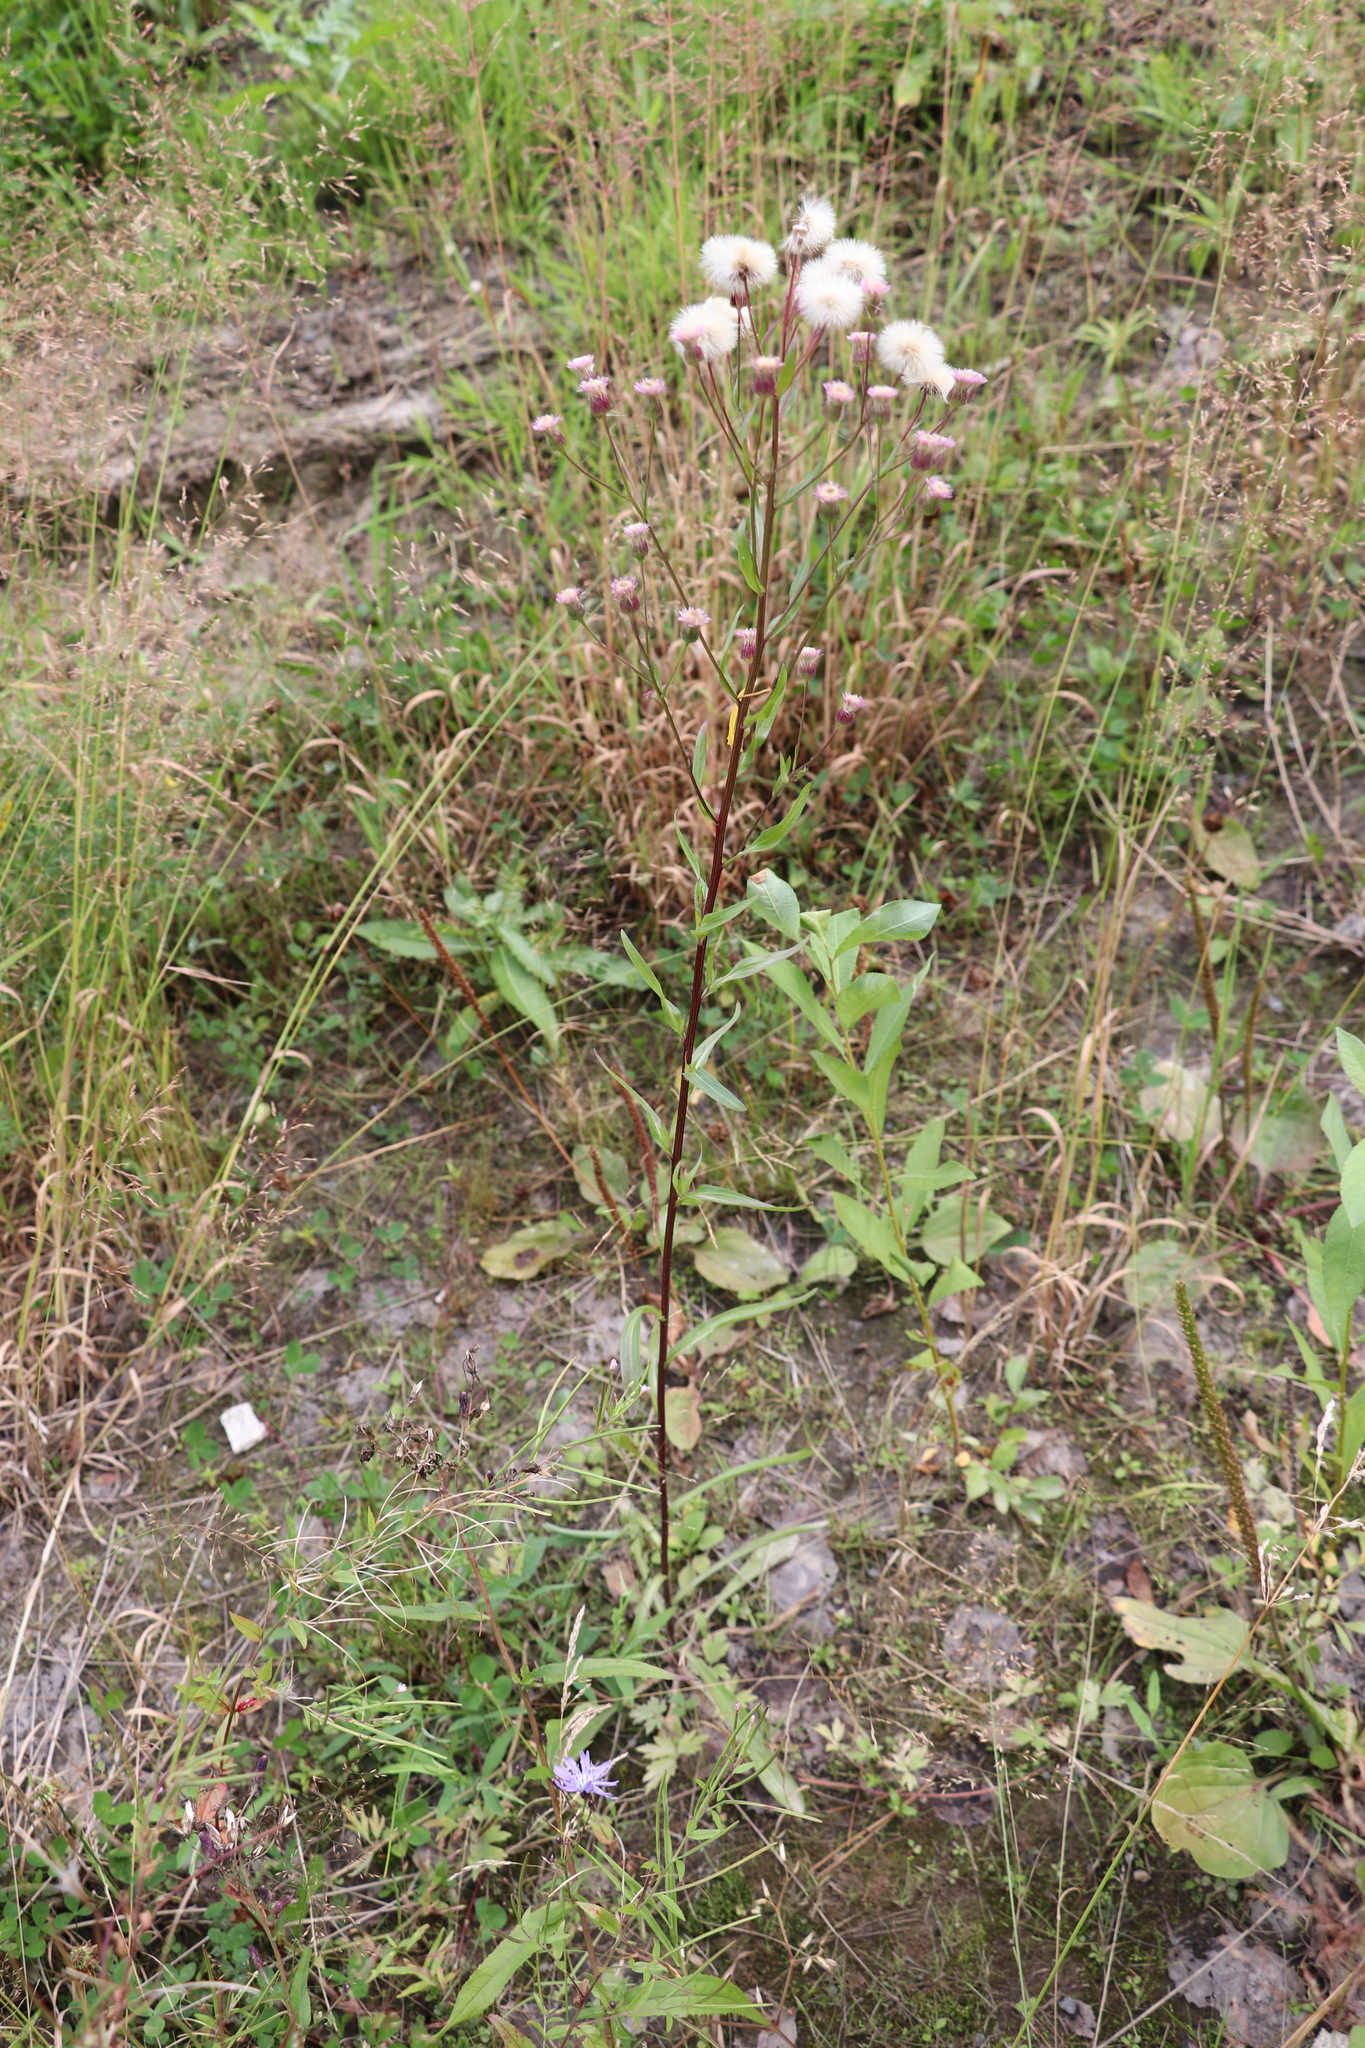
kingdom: Plantae
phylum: Tracheophyta
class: Magnoliopsida
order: Asterales
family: Asteraceae
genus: Erigeron
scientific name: Erigeron acris
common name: Blue fleabane
